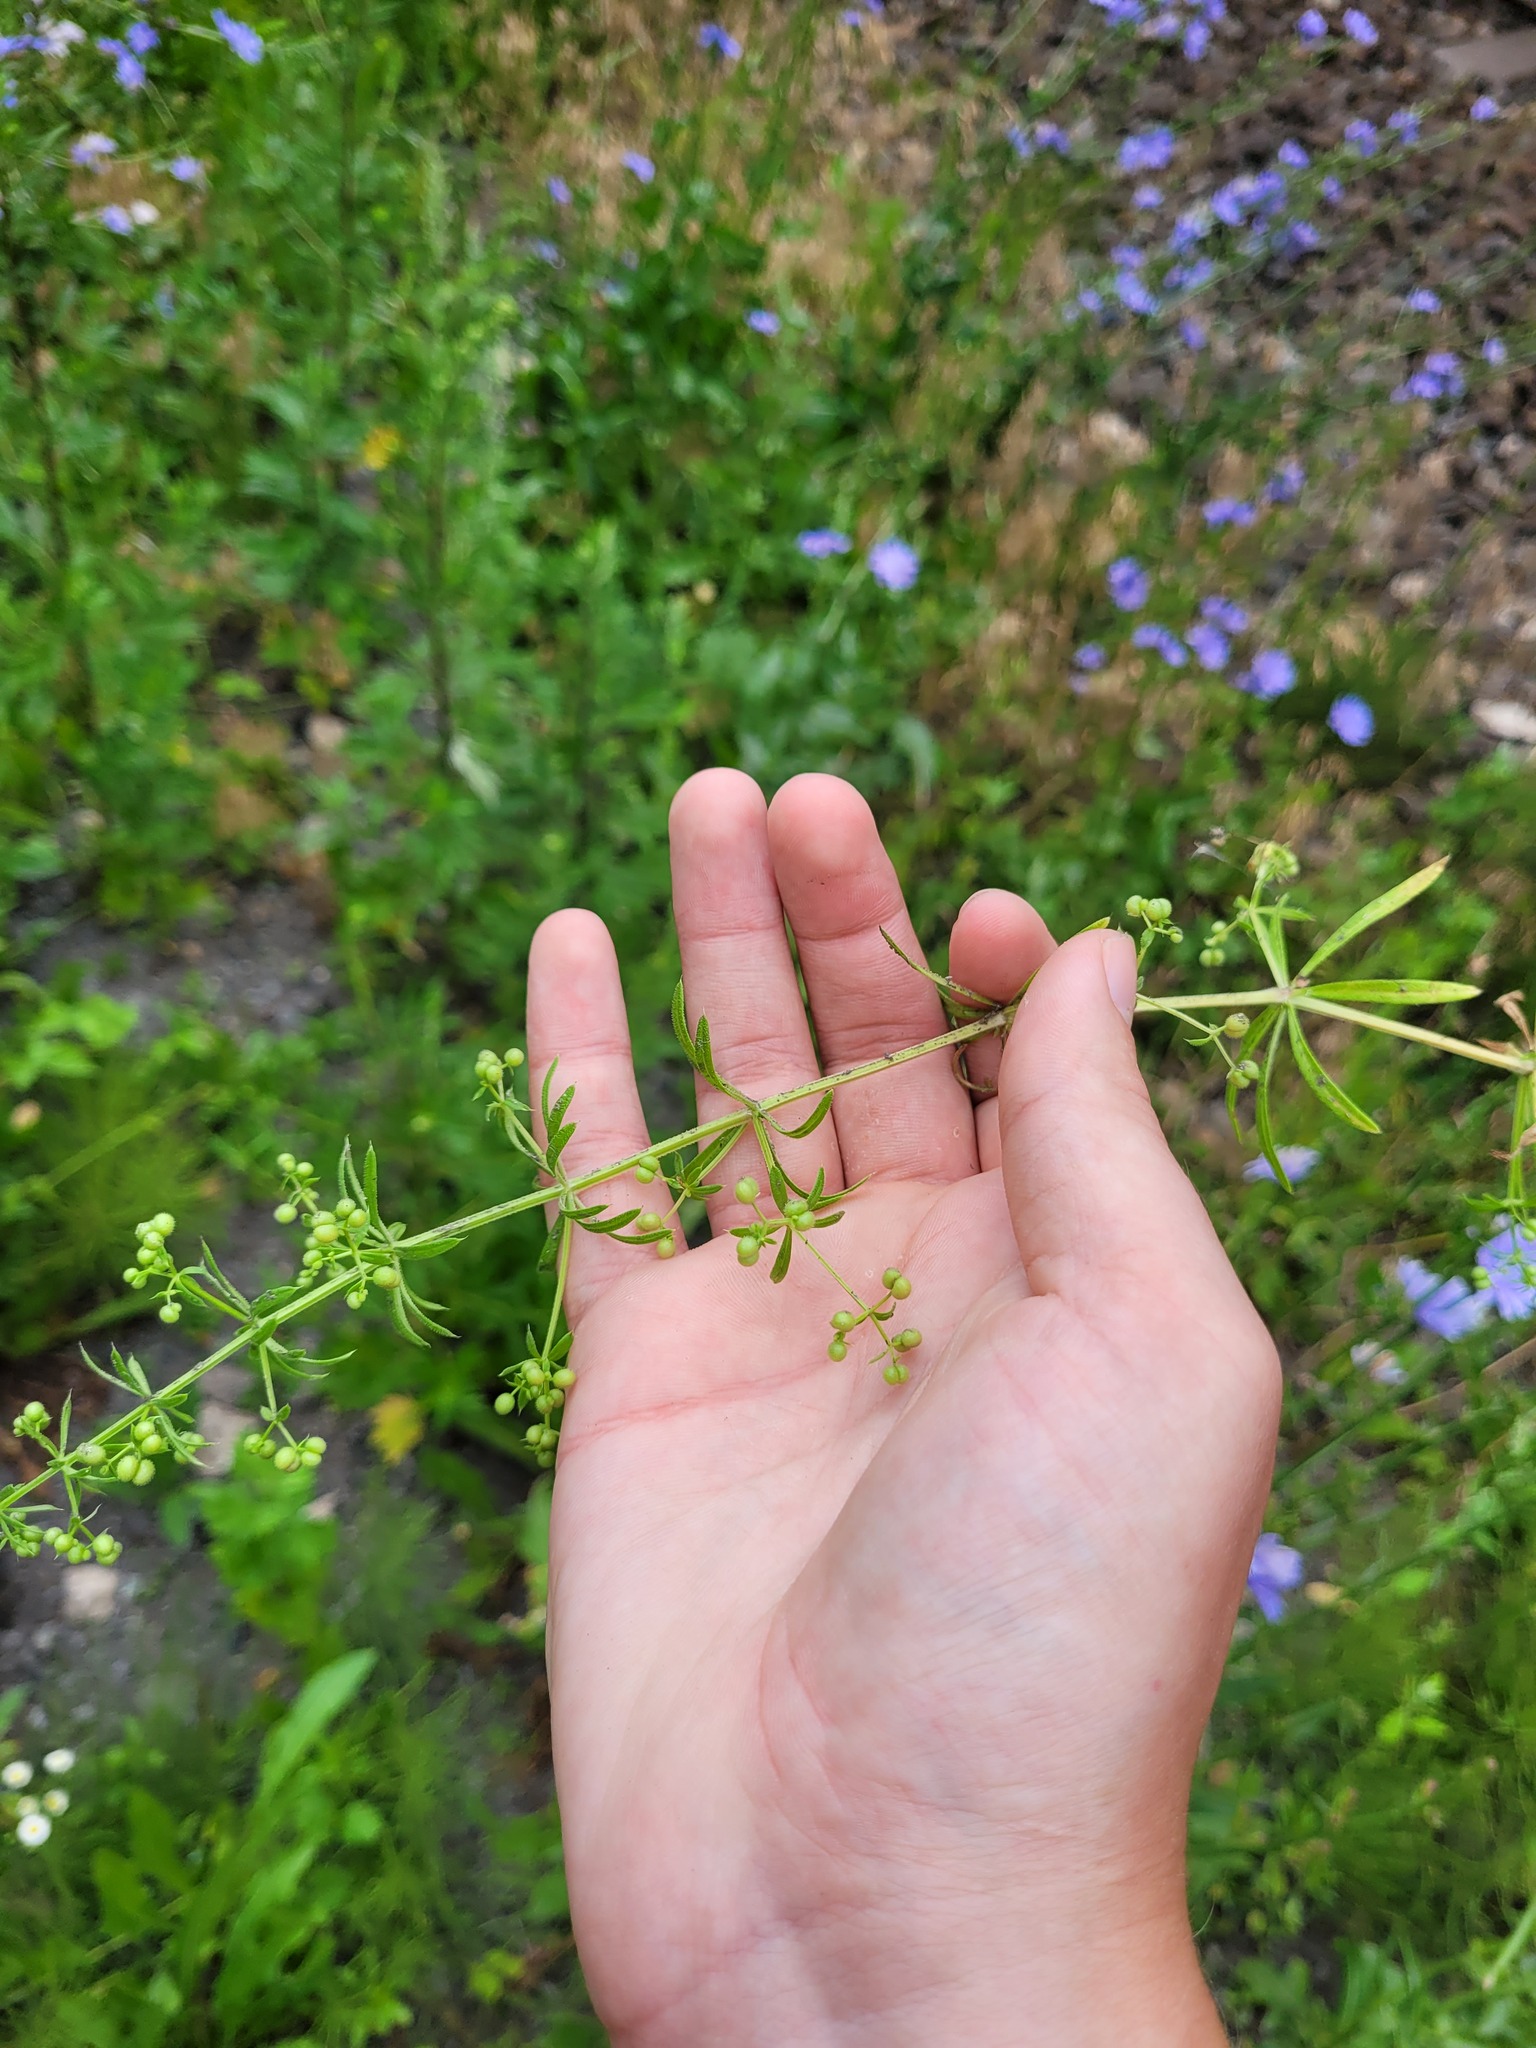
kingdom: Plantae
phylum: Tracheophyta
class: Magnoliopsida
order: Gentianales
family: Rubiaceae
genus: Galium
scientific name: Galium spurium
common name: False cleavers
